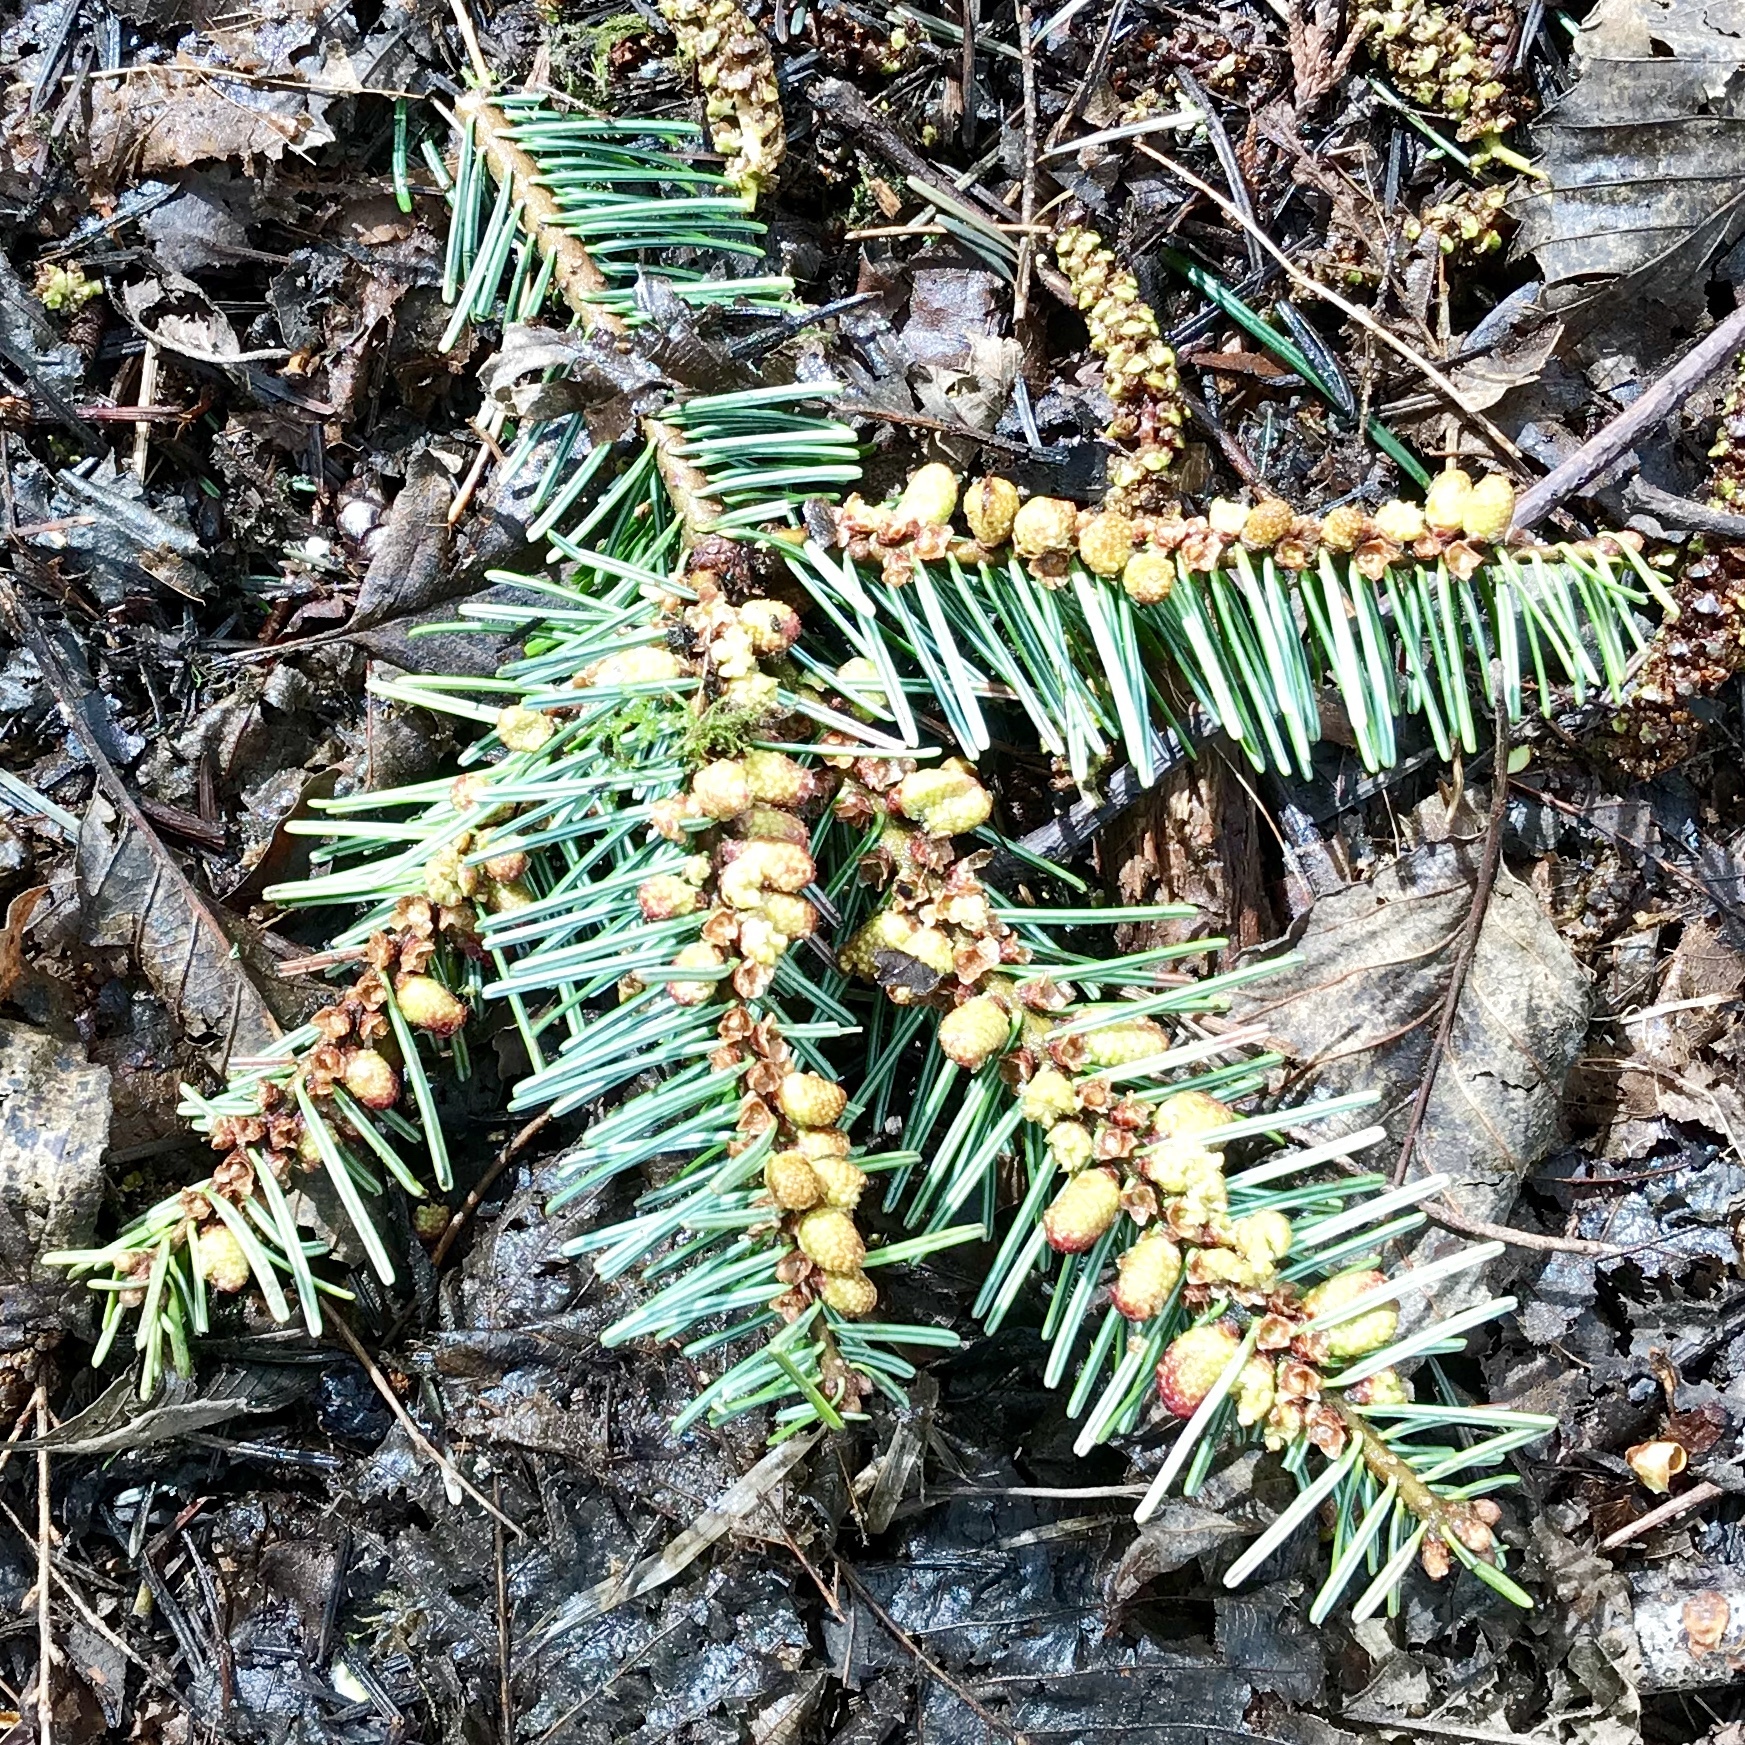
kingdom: Plantae
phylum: Tracheophyta
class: Pinopsida
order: Pinales
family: Pinaceae
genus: Abies
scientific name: Abies grandis
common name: Giant fir
